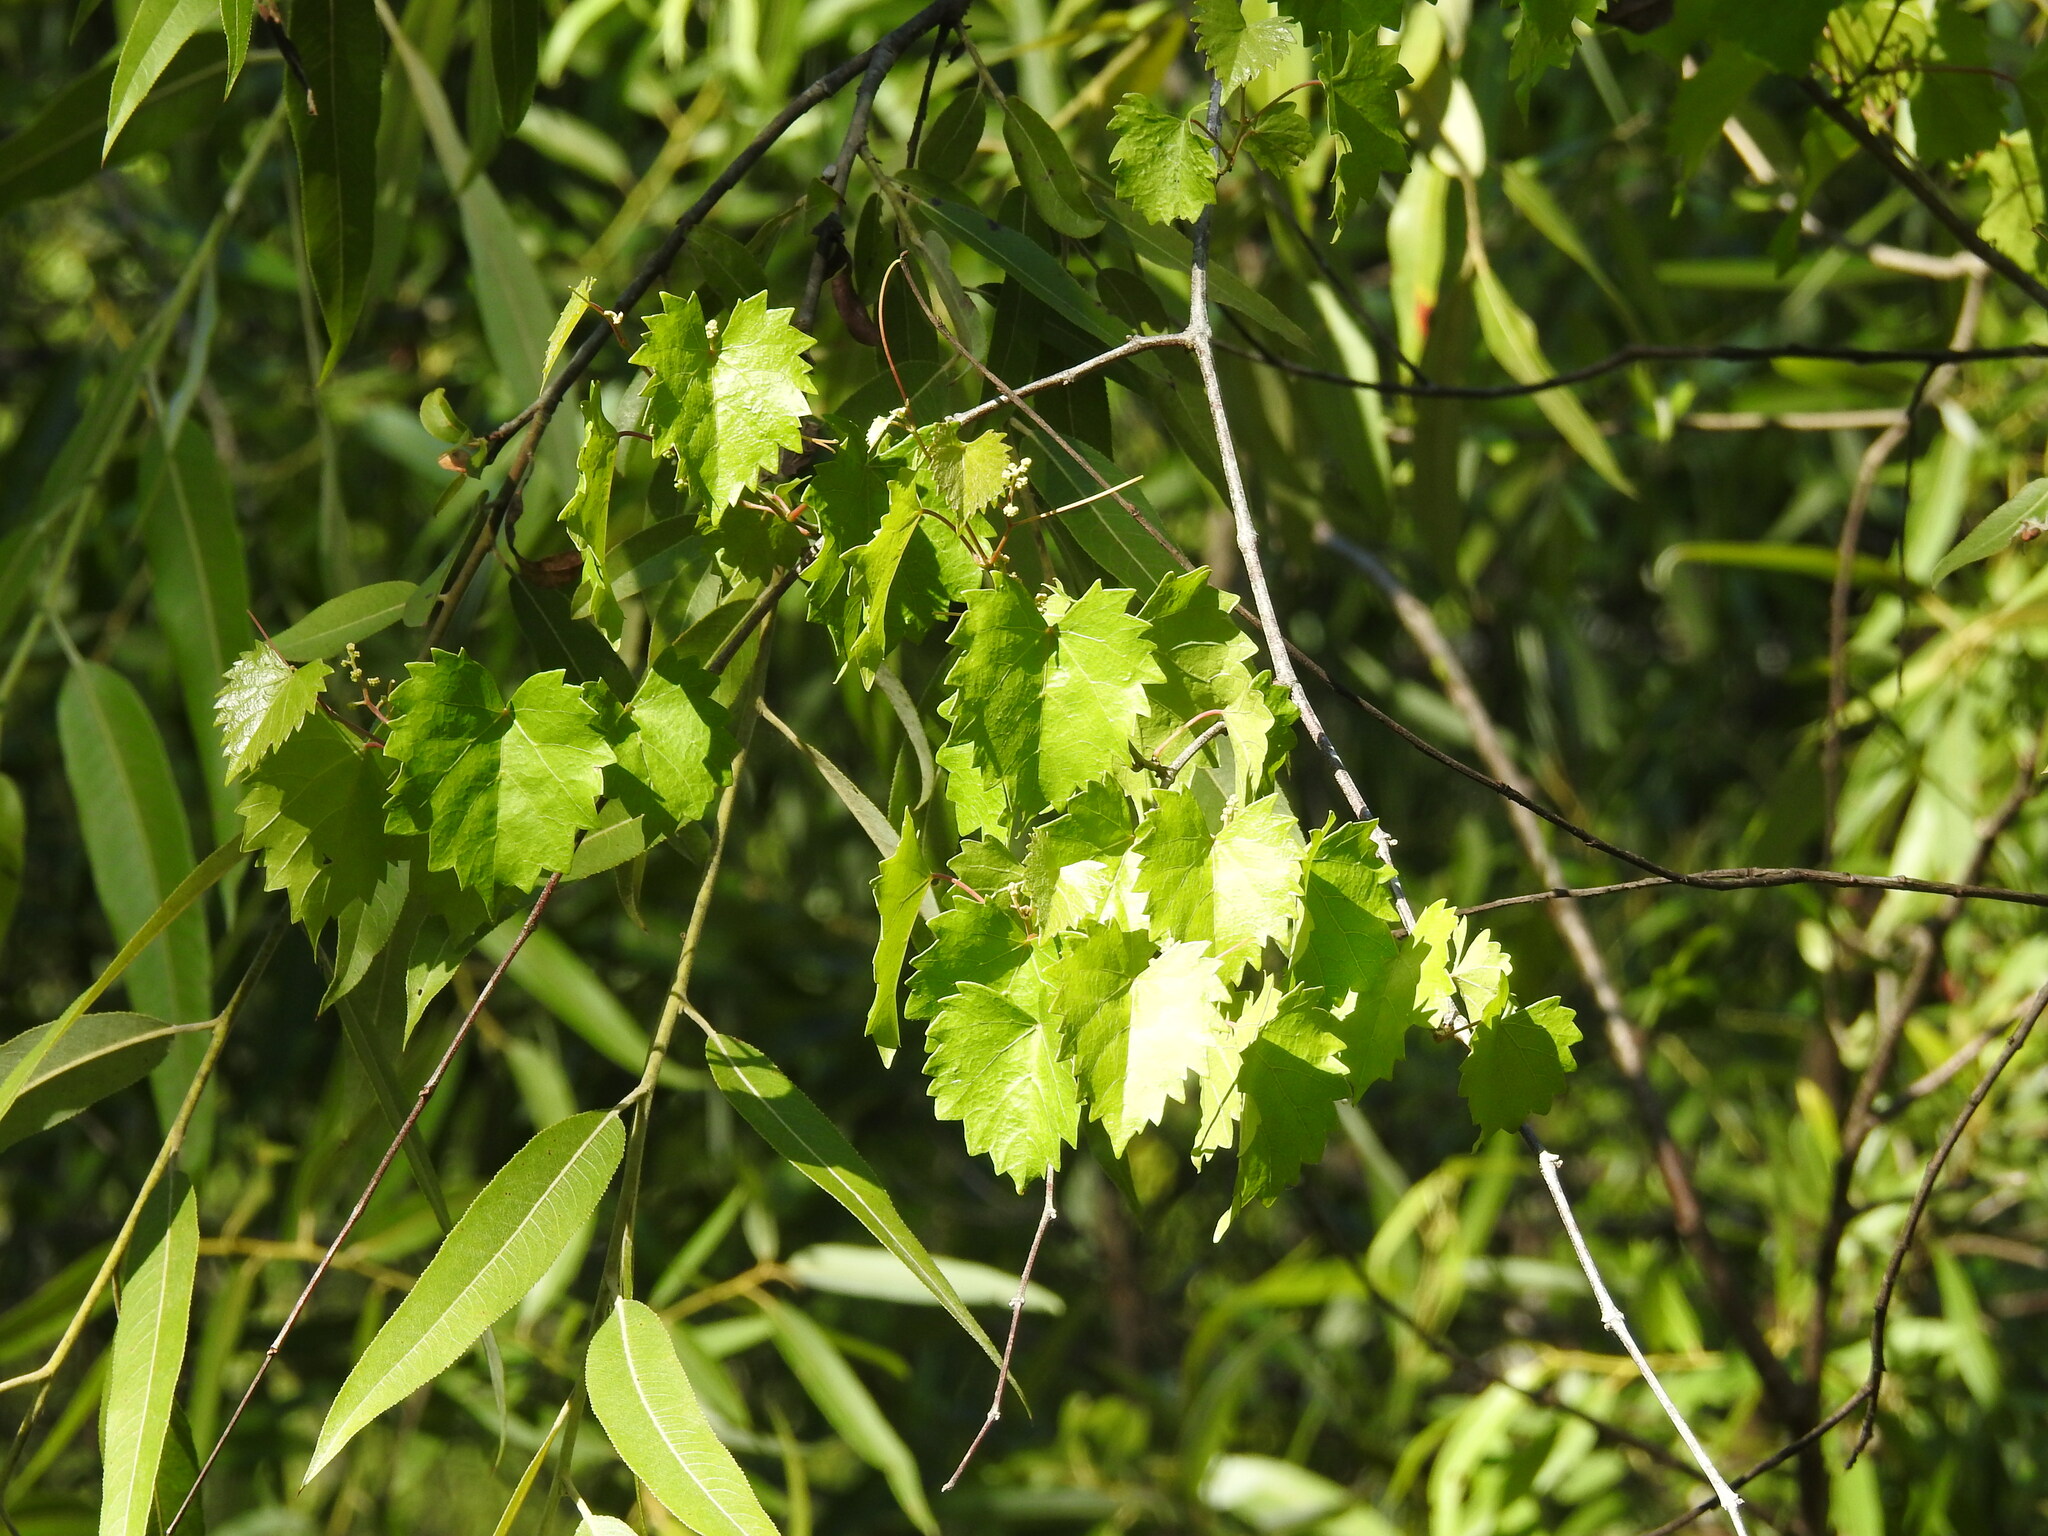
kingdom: Plantae
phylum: Tracheophyta
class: Magnoliopsida
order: Vitales
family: Vitaceae
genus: Vitis
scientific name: Vitis rotundifolia
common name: Muscadine grape
